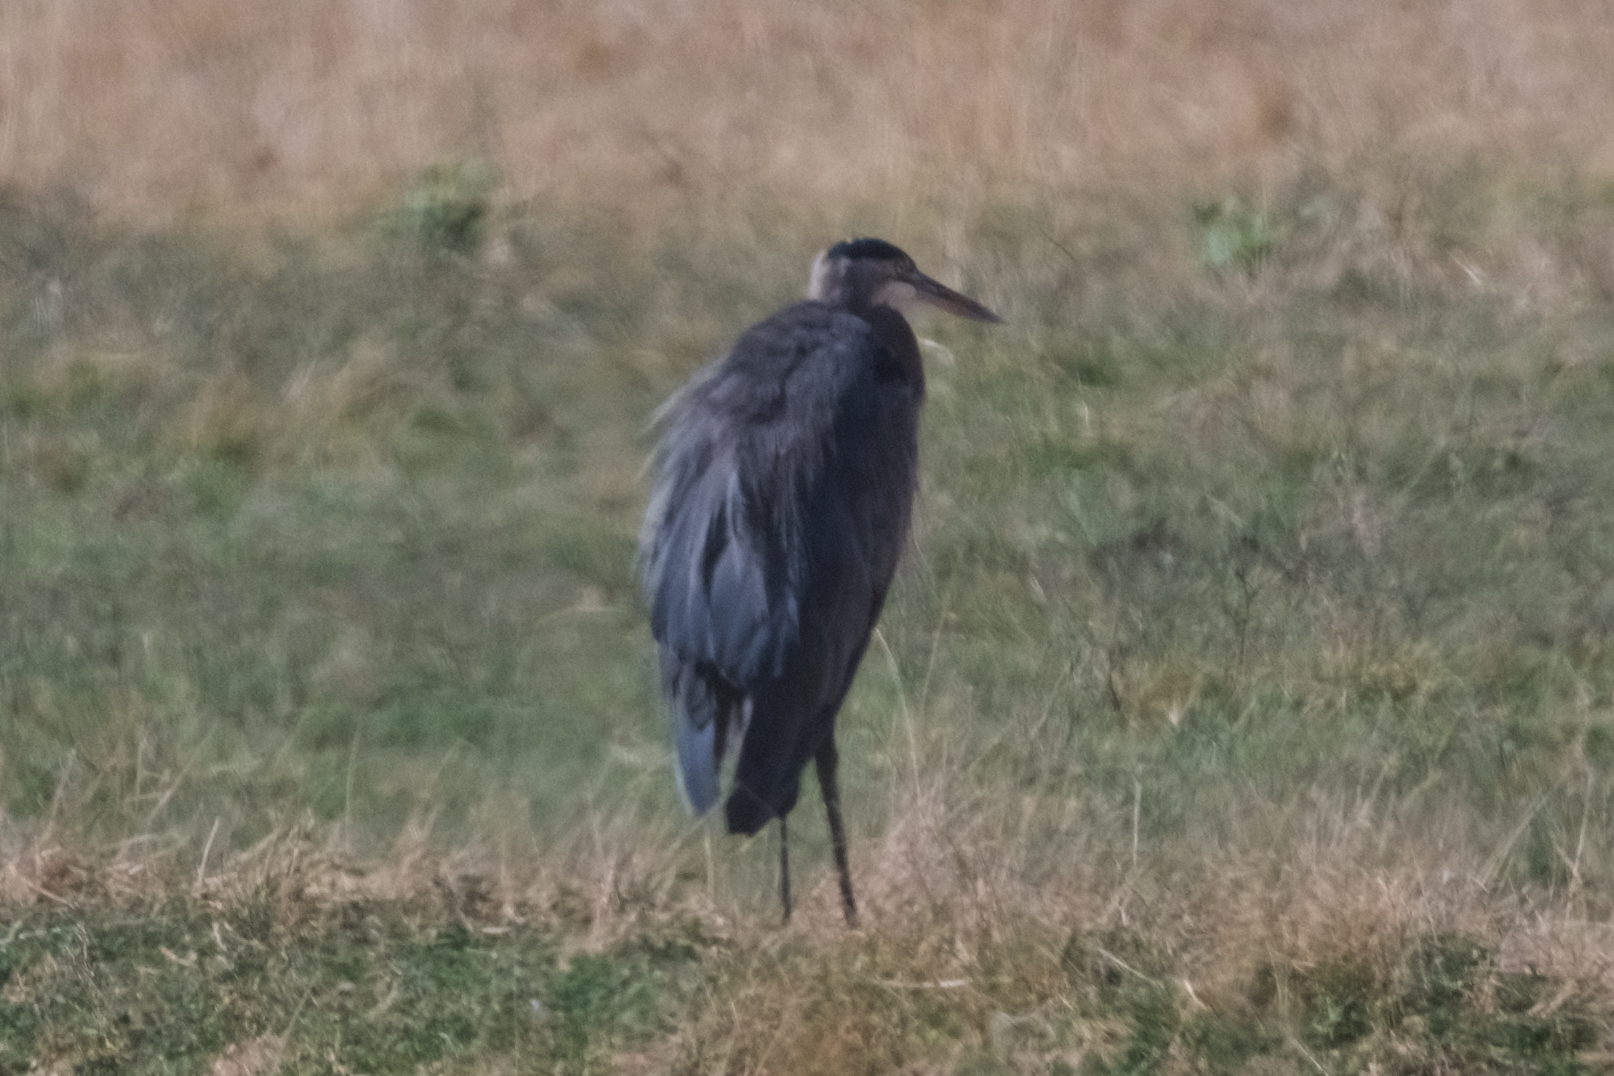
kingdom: Animalia
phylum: Chordata
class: Aves
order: Pelecaniformes
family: Ardeidae
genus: Ardea
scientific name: Ardea herodias
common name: Great blue heron
